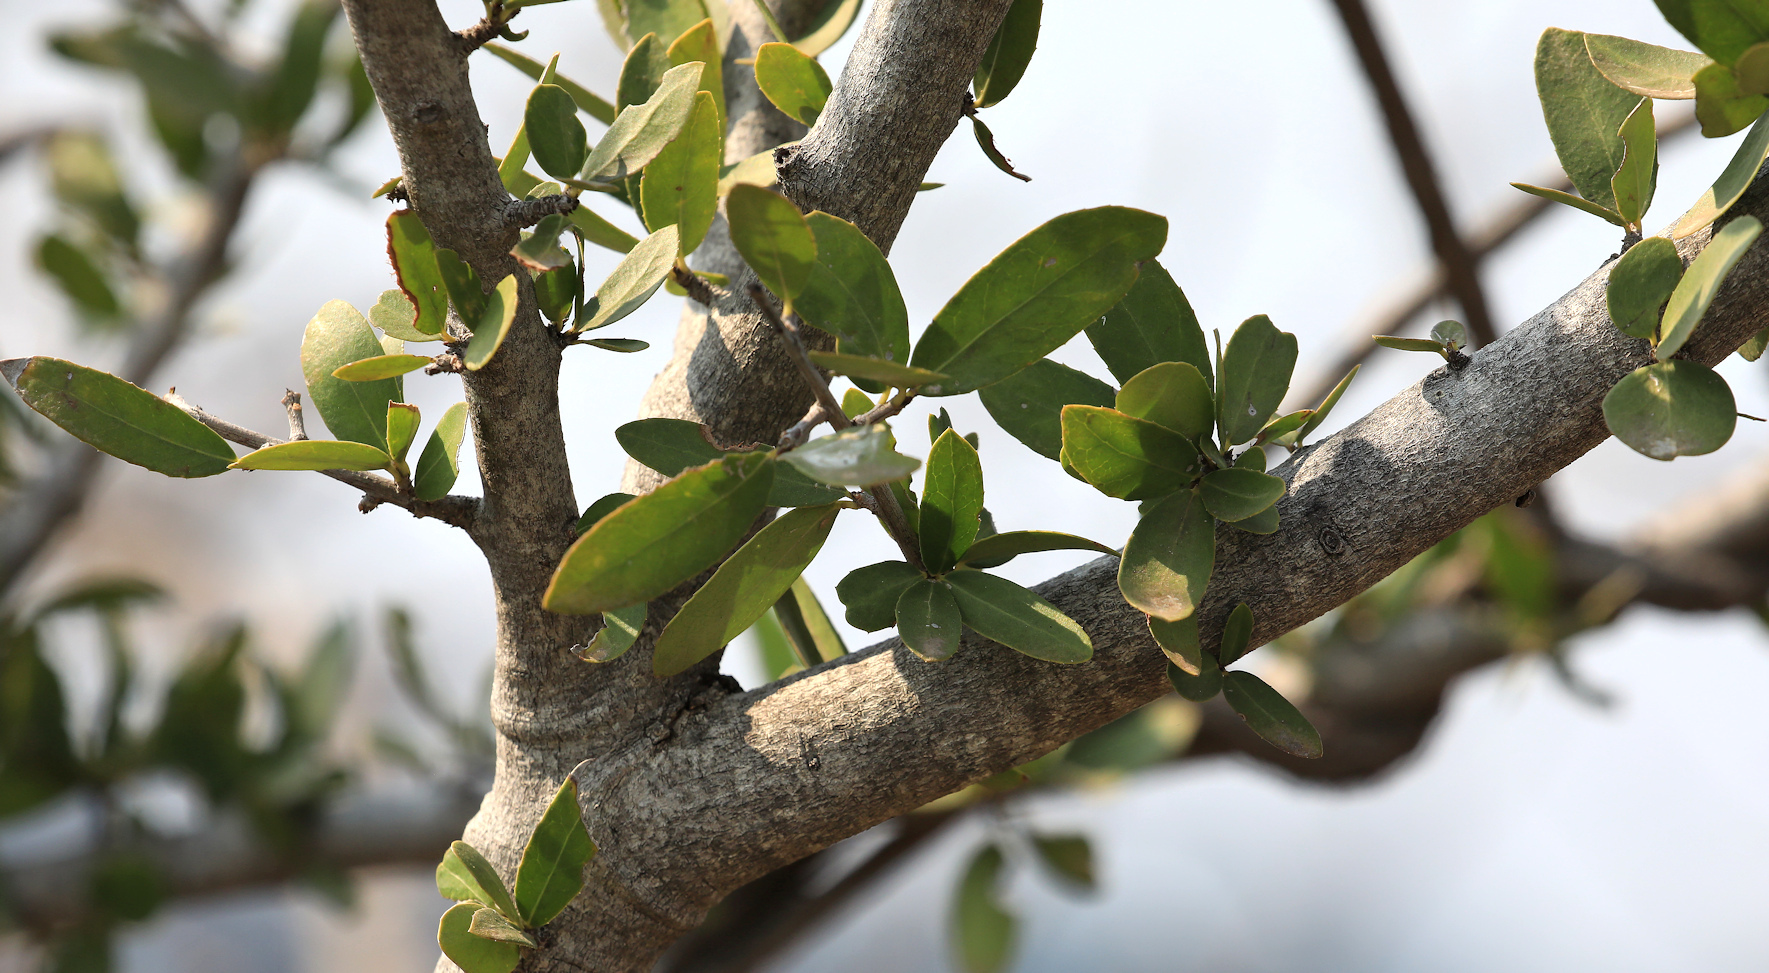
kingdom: Plantae
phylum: Tracheophyta
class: Magnoliopsida
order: Celastrales
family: Celastraceae
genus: Elaeodendron
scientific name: Elaeodendron transvaalense
